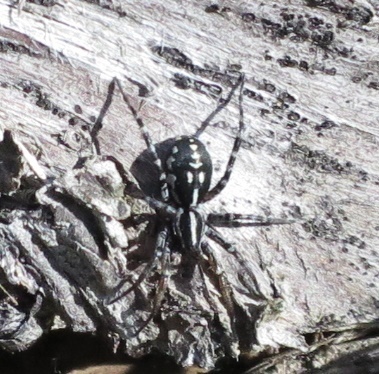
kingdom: Animalia
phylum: Arthropoda
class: Arachnida
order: Araneae
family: Corinnidae
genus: Nyssus
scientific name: Nyssus coloripes
